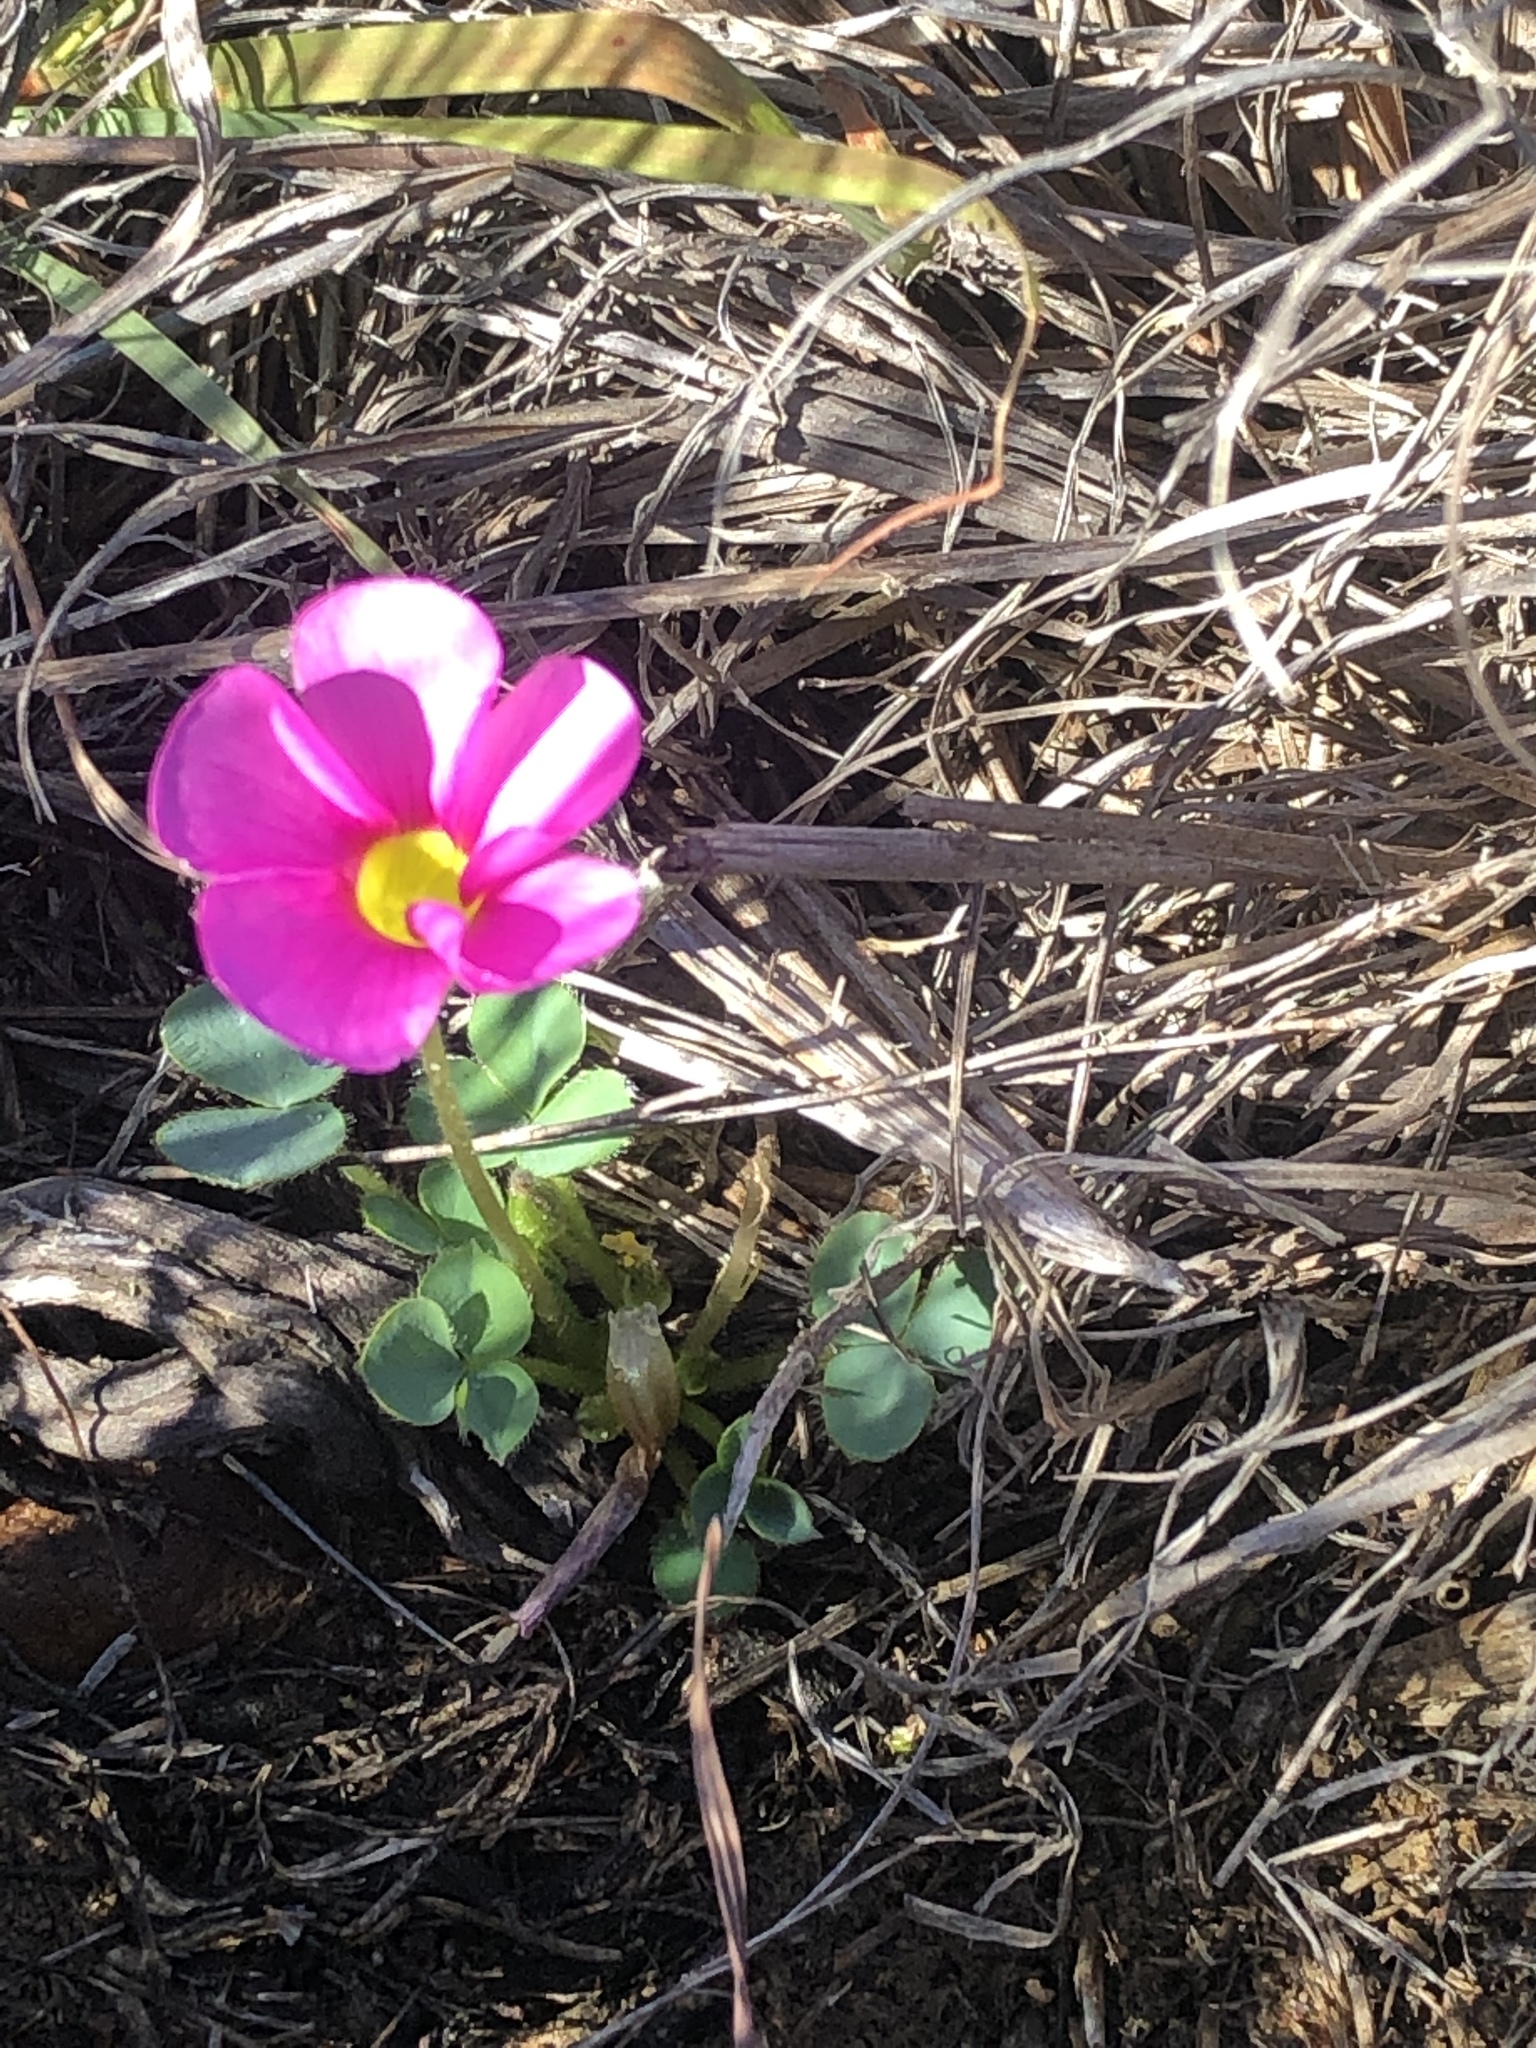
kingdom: Plantae
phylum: Tracheophyta
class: Magnoliopsida
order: Oxalidales
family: Oxalidaceae
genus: Oxalis
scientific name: Oxalis purpurea
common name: Purple woodsorrel
